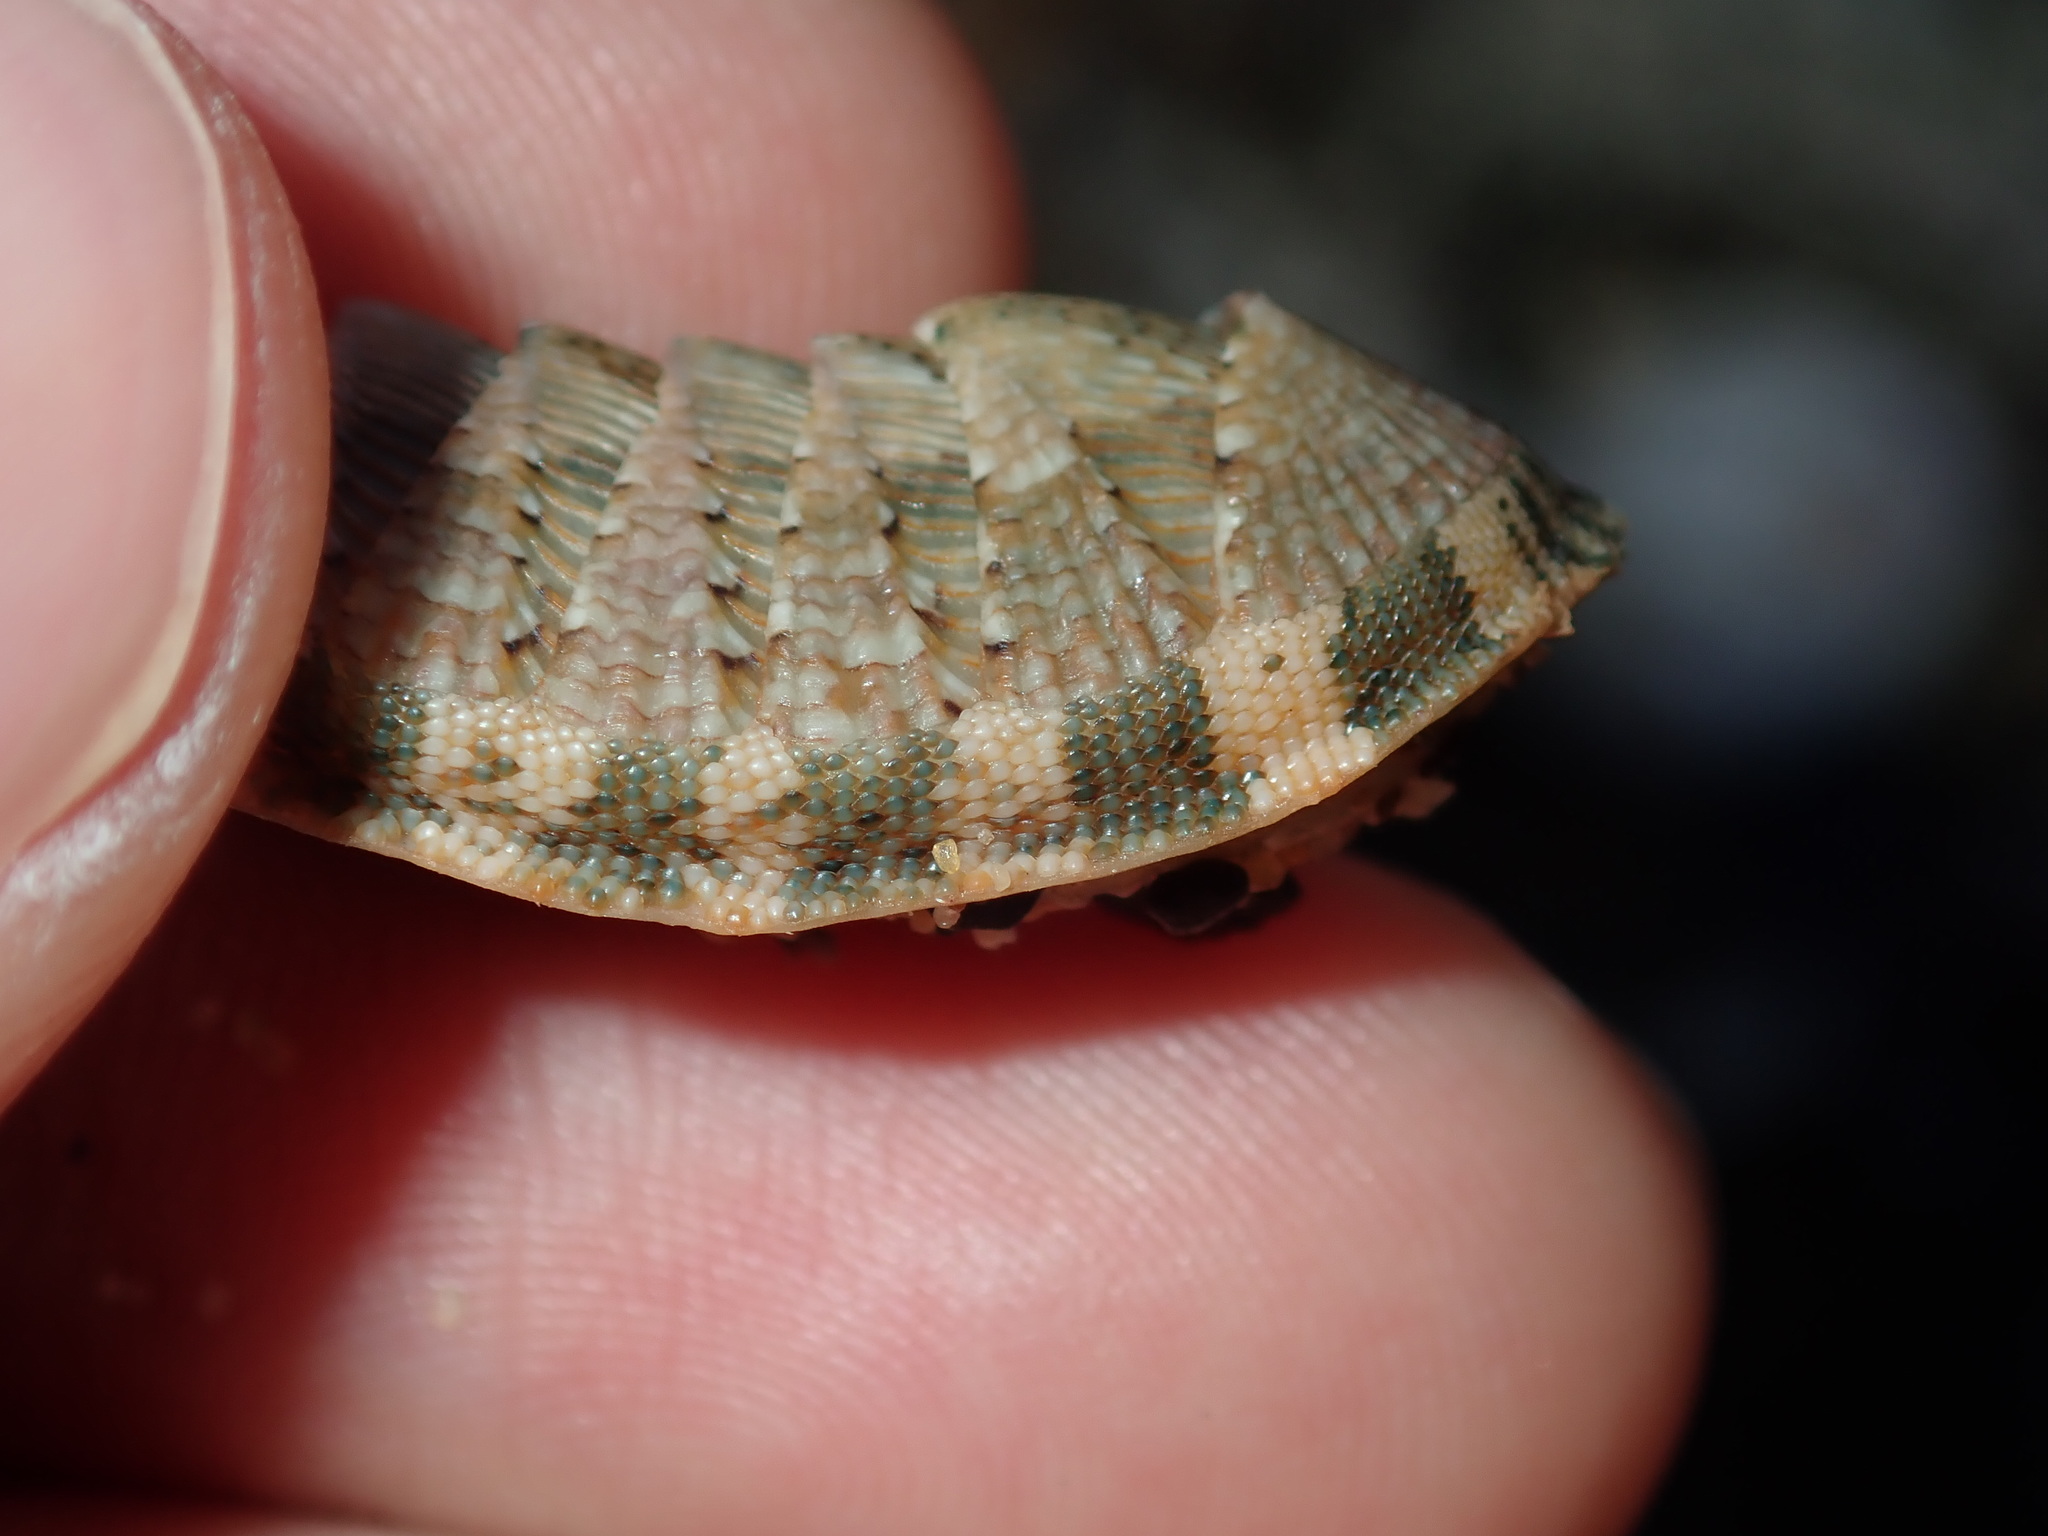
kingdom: Animalia
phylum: Mollusca
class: Polyplacophora
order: Chitonida
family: Chitonidae
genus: Rhyssoplax
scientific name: Rhyssoplax vauclusensis
